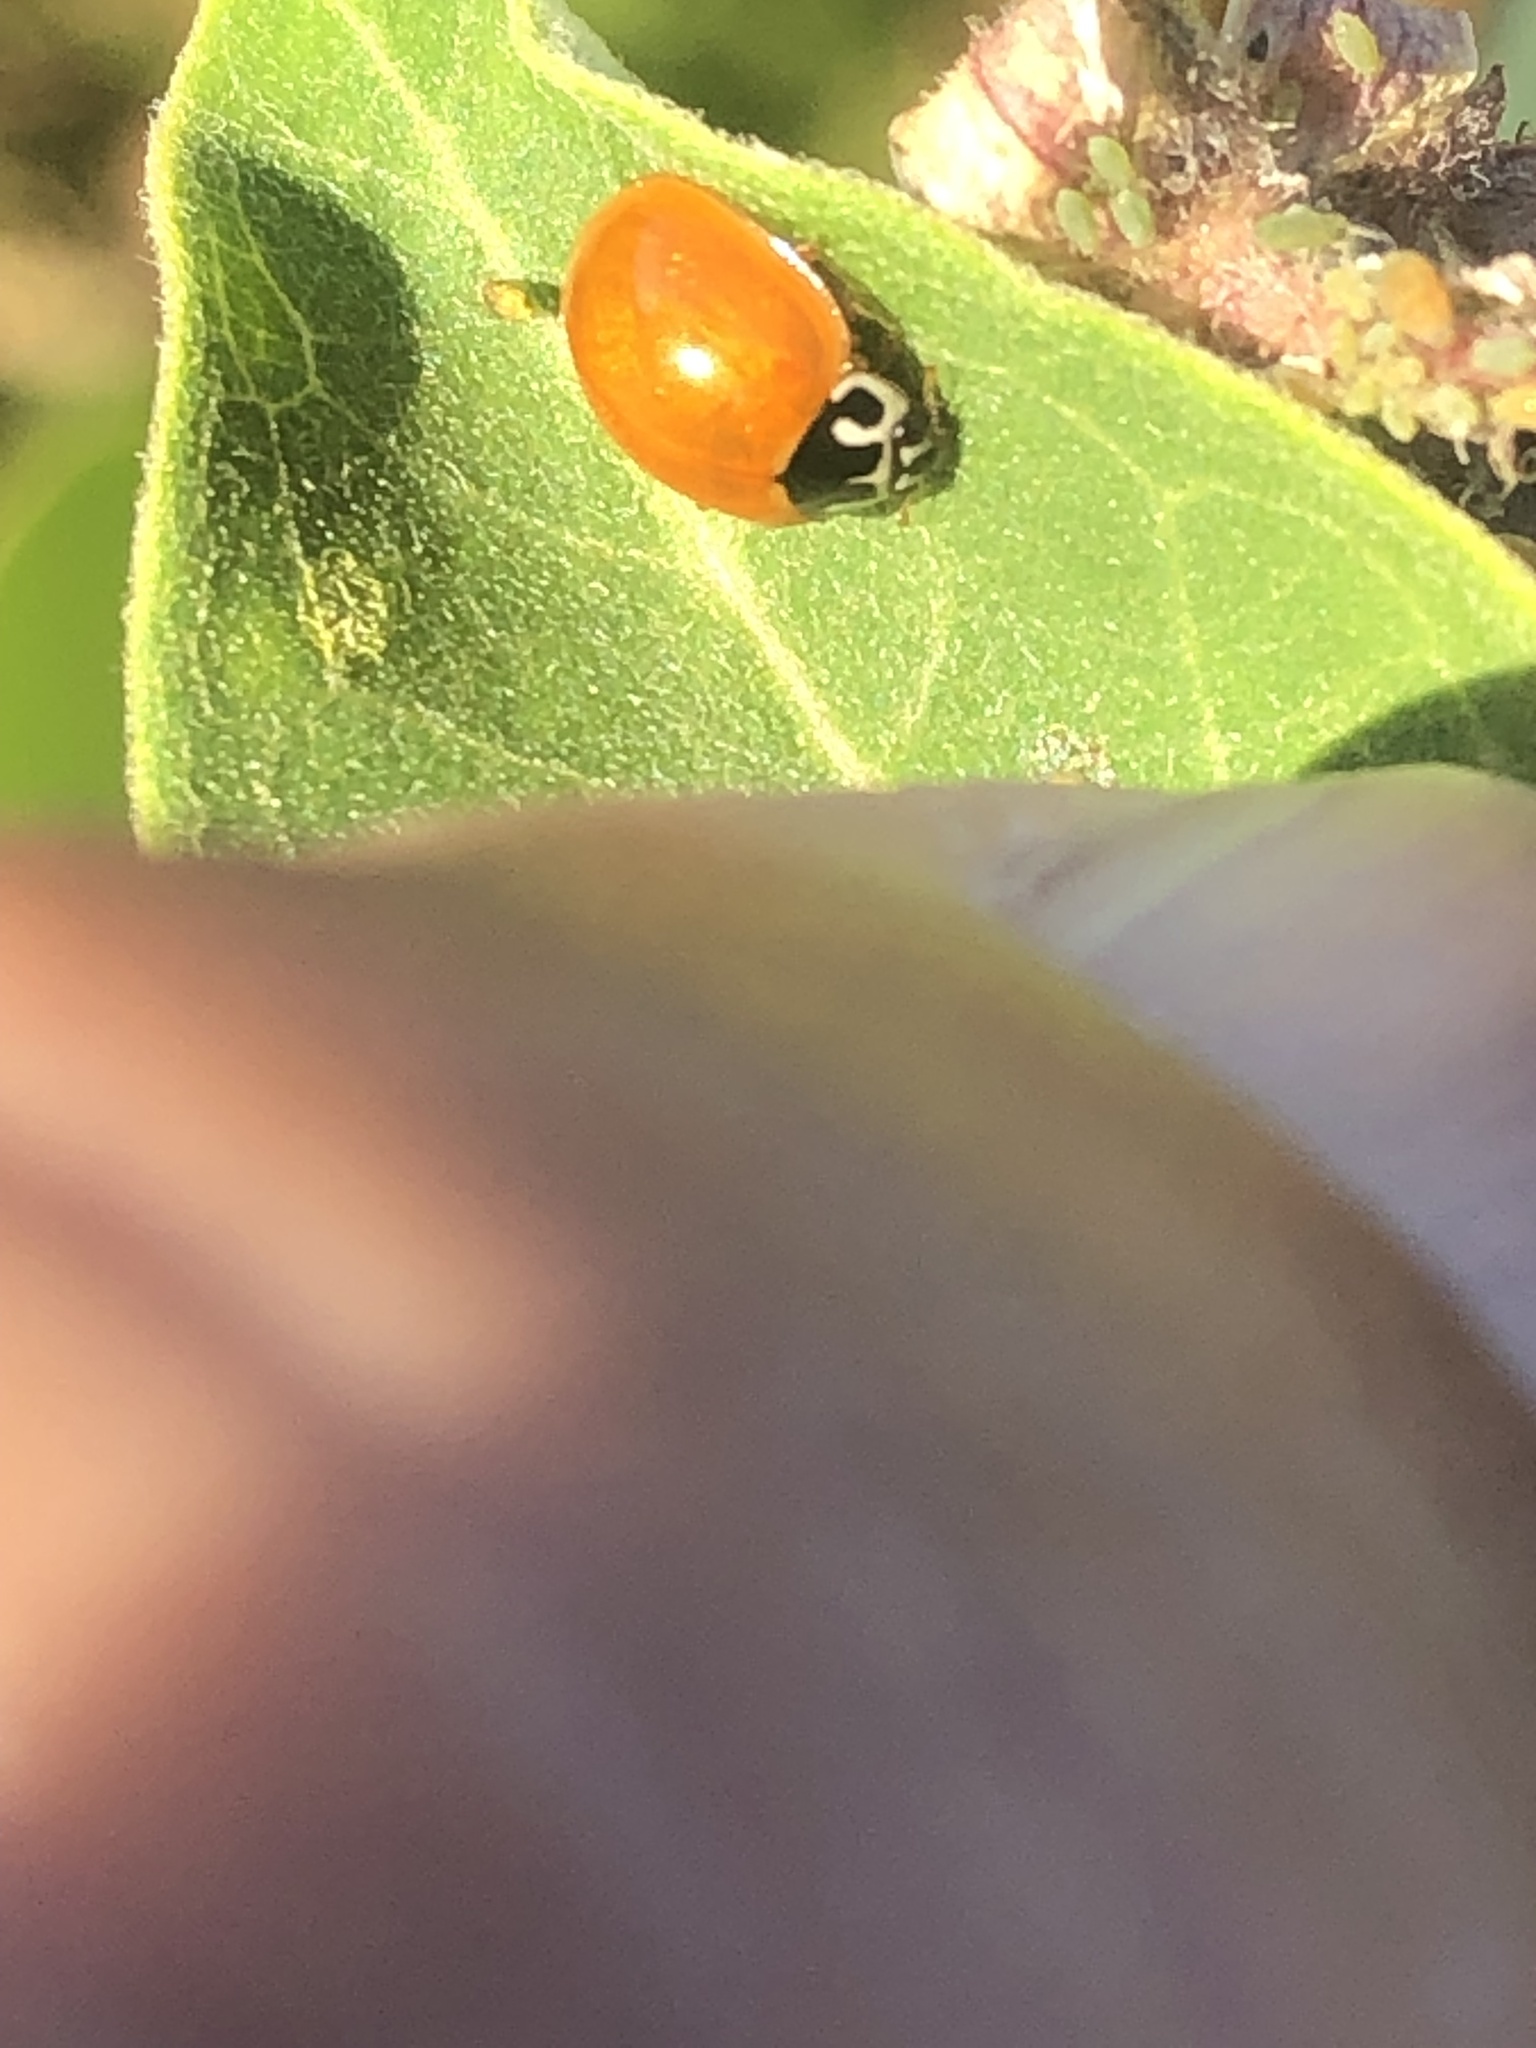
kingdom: Animalia
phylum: Arthropoda
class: Insecta
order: Coleoptera
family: Coccinellidae
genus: Cycloneda
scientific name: Cycloneda munda
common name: Polished lady beetle
